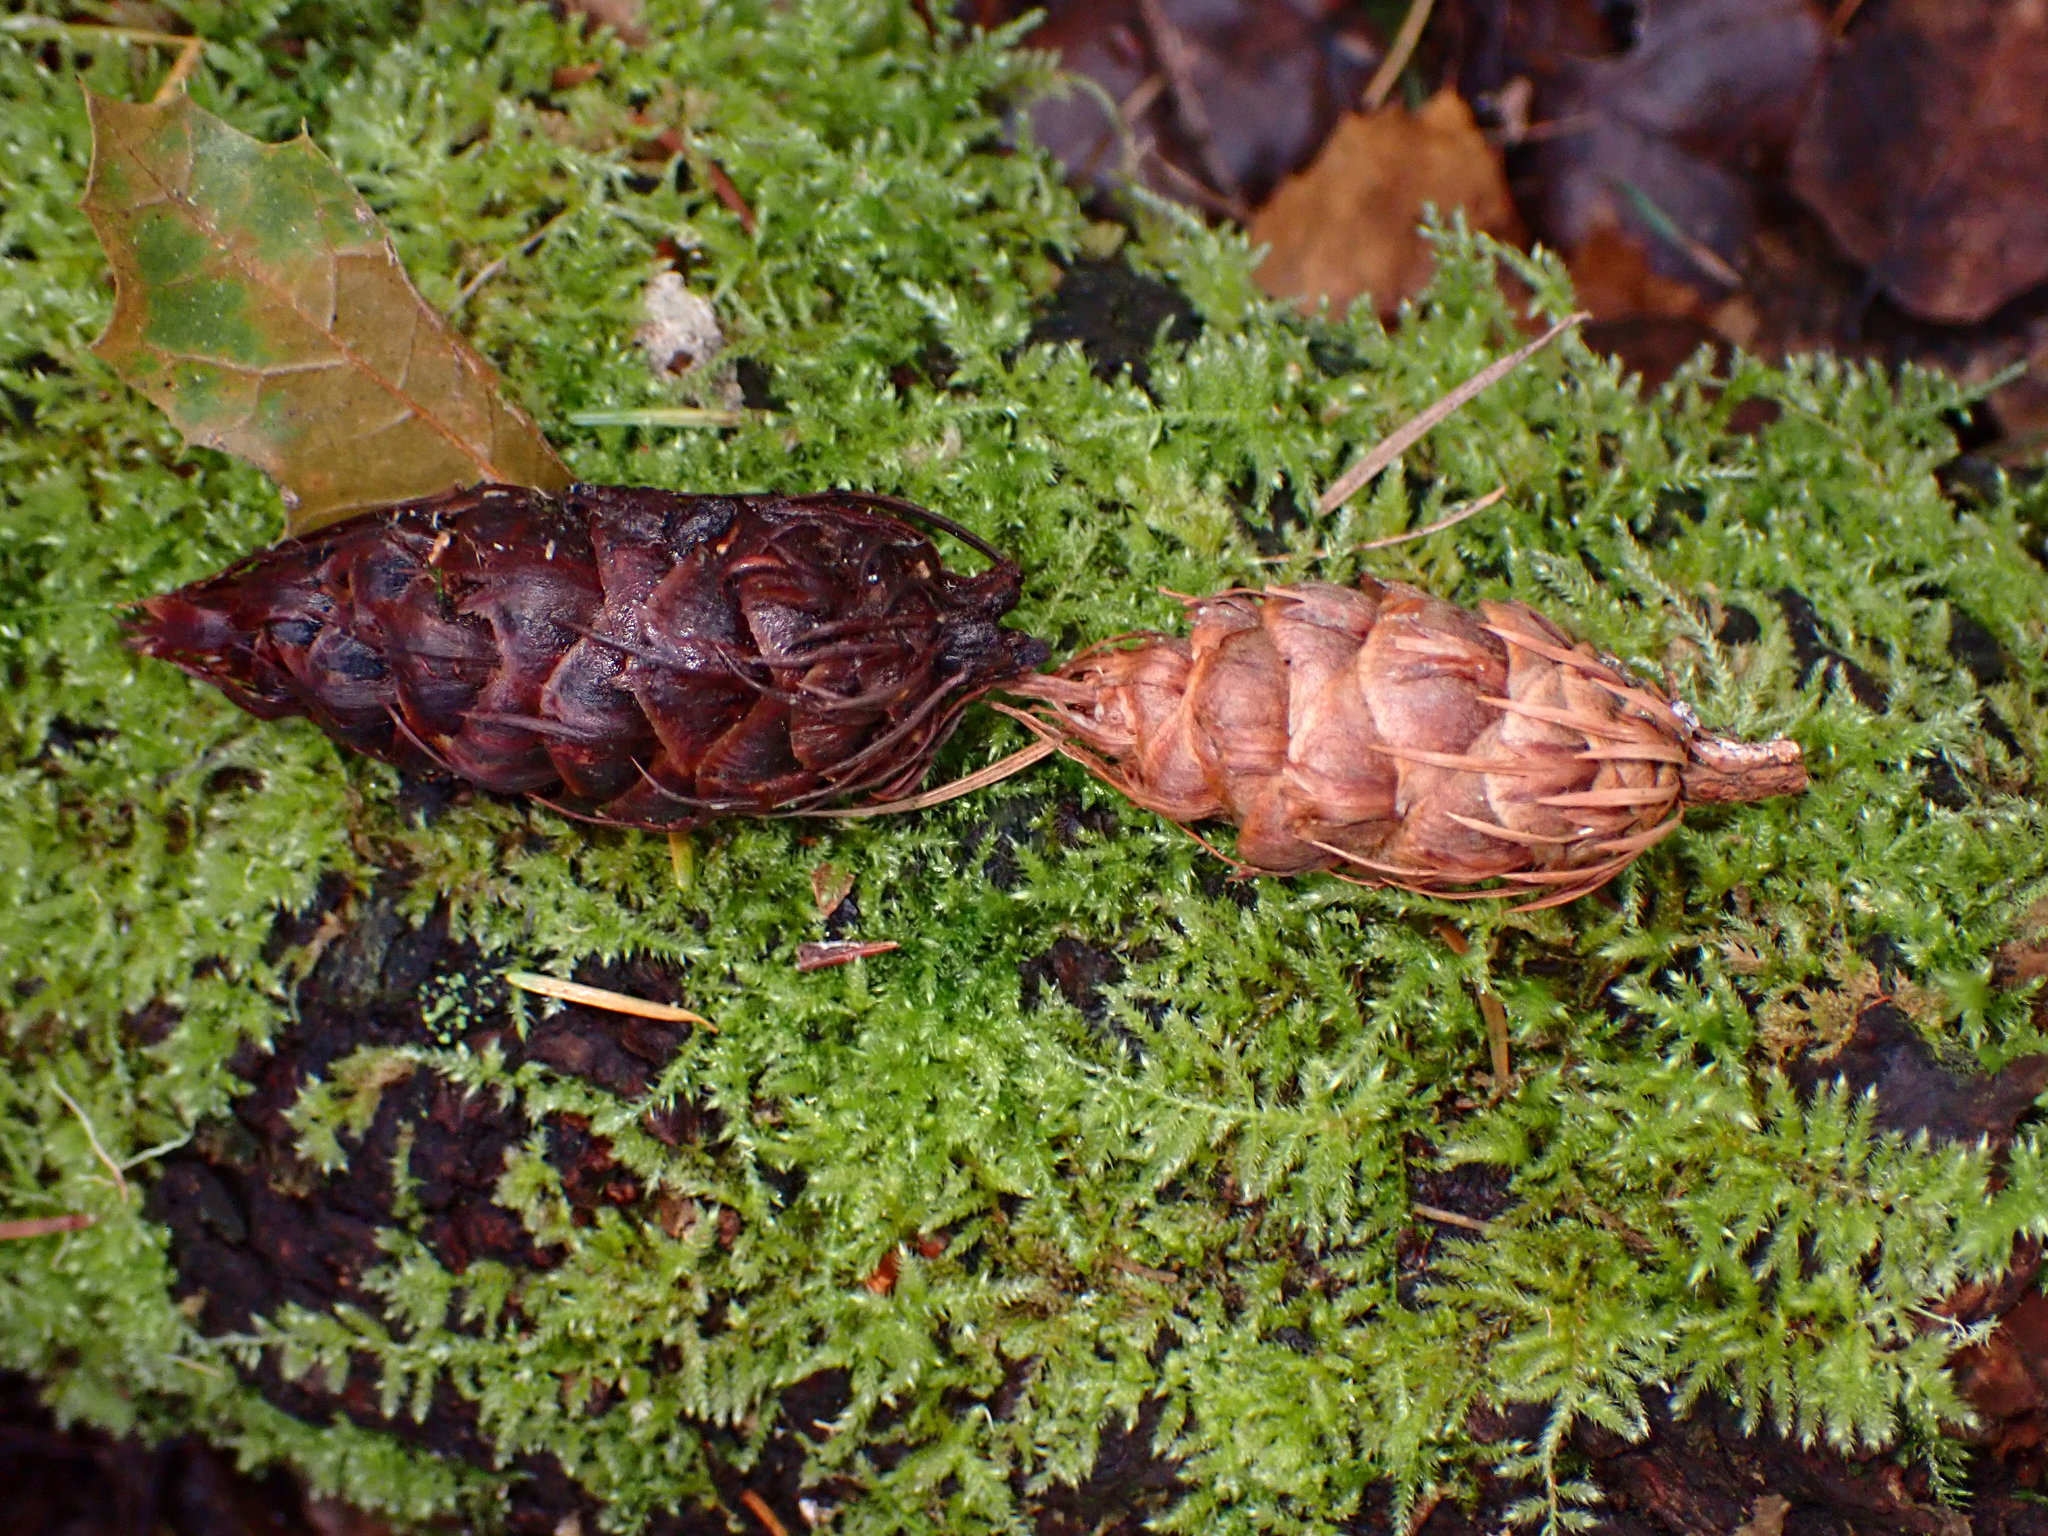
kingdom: Plantae
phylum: Tracheophyta
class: Pinopsida
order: Pinales
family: Pinaceae
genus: Pseudotsuga
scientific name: Pseudotsuga menziesii
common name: Douglas fir
